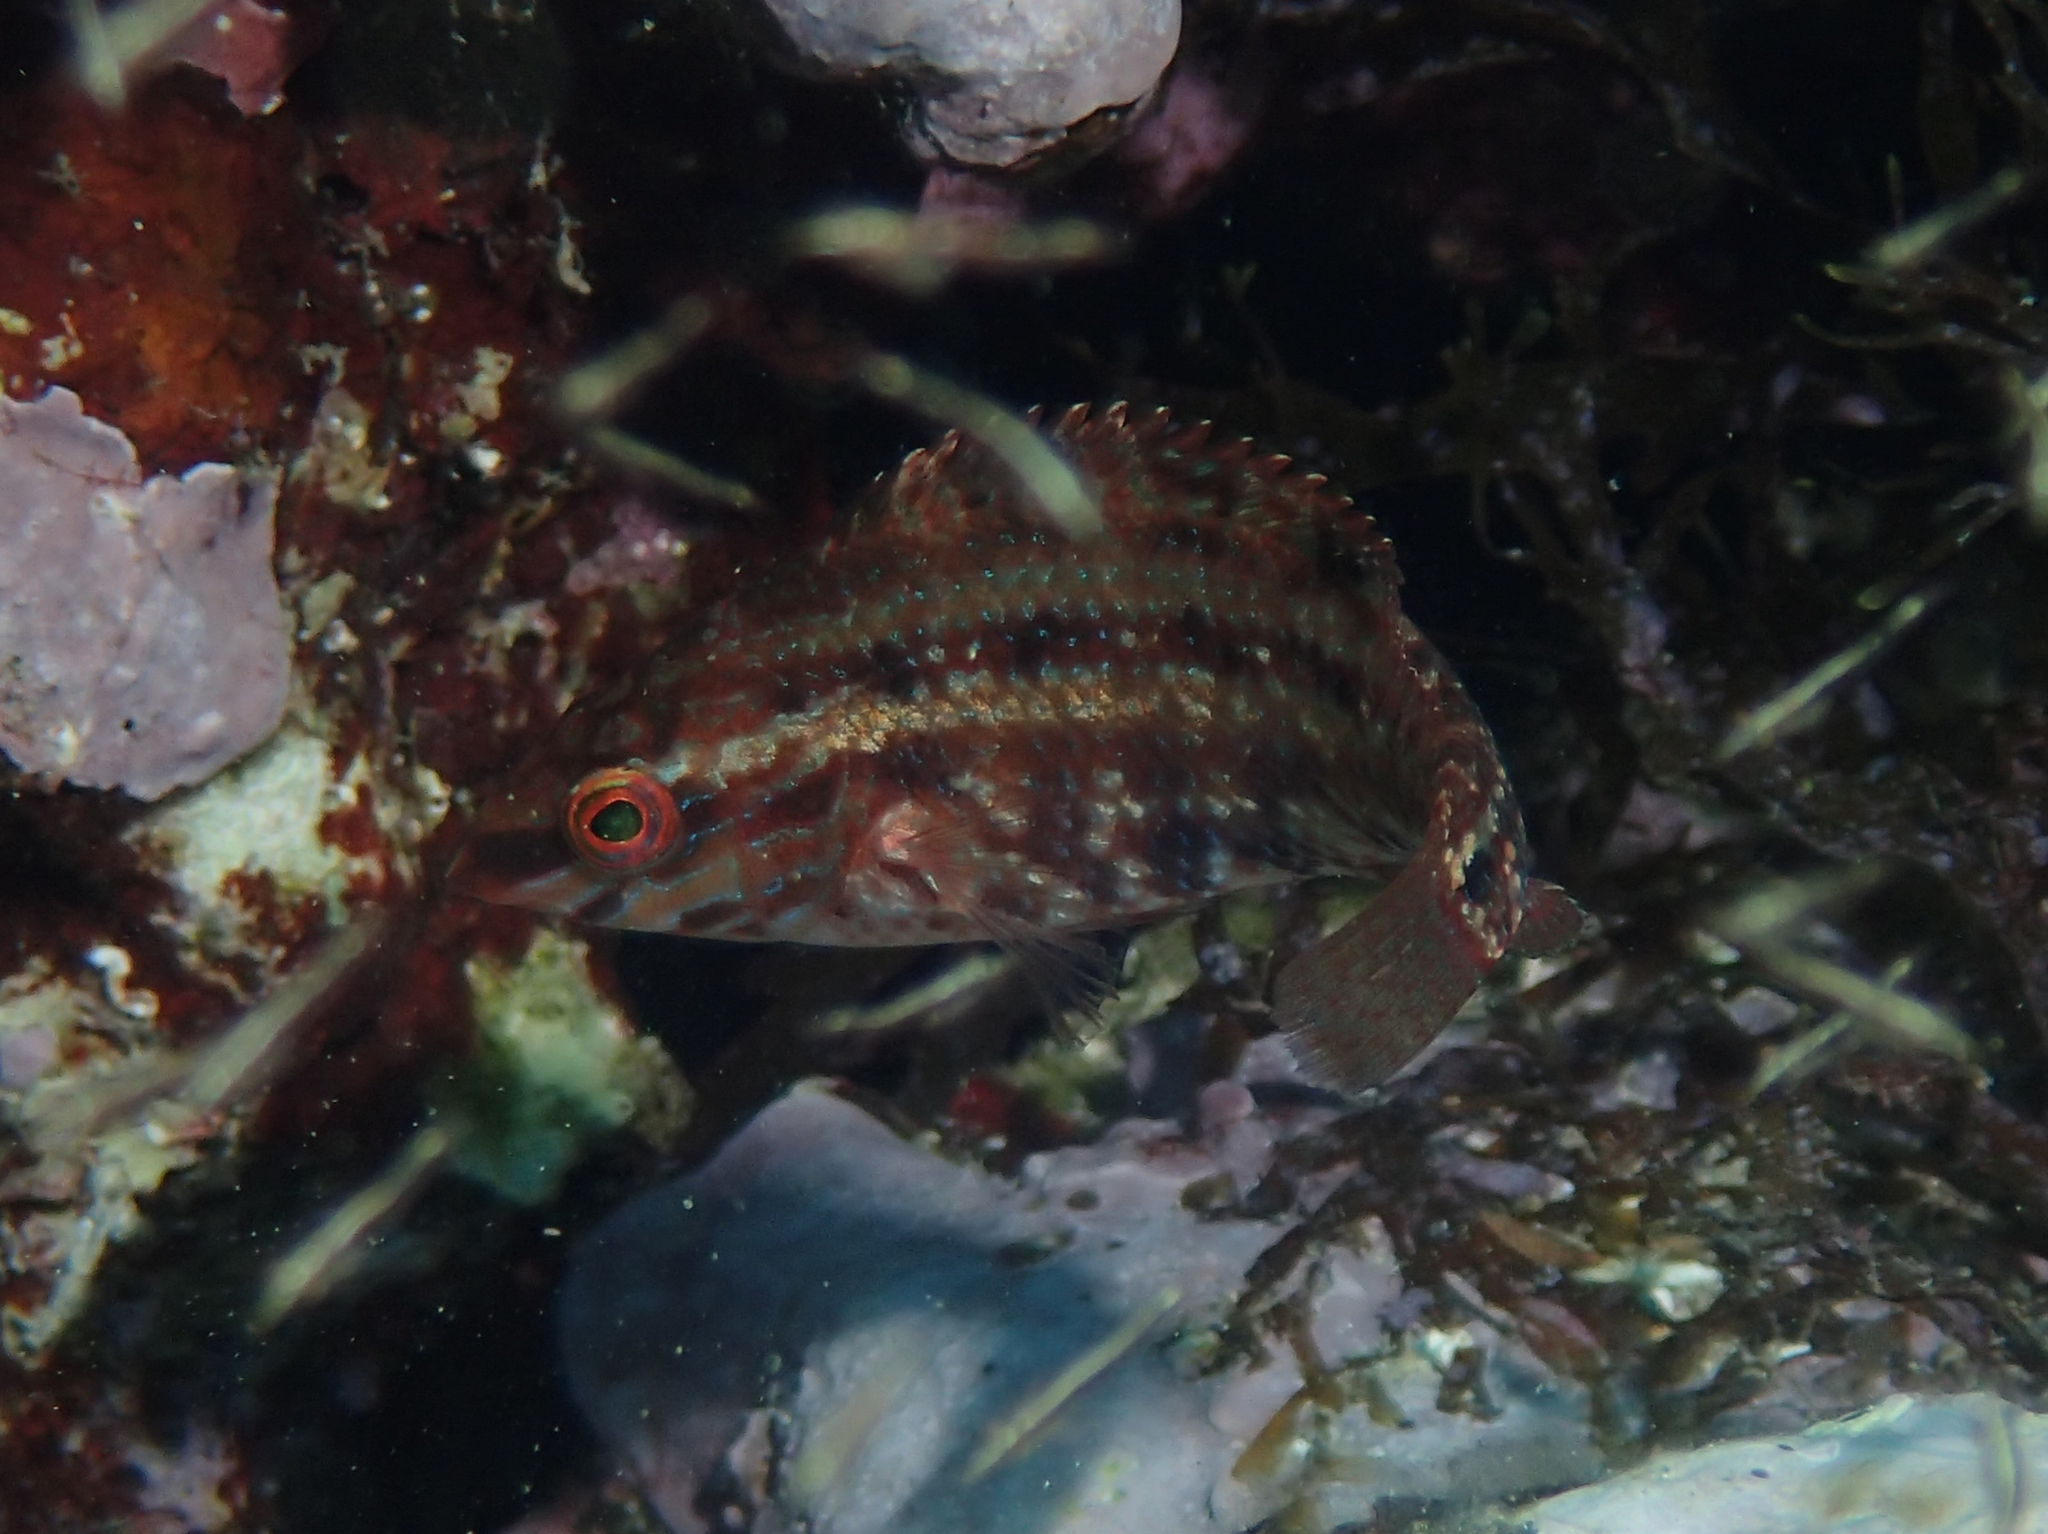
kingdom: Animalia
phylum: Chordata
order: Perciformes
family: Labridae
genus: Symphodus
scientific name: Symphodus roissali
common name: Five-spotted wrasse
